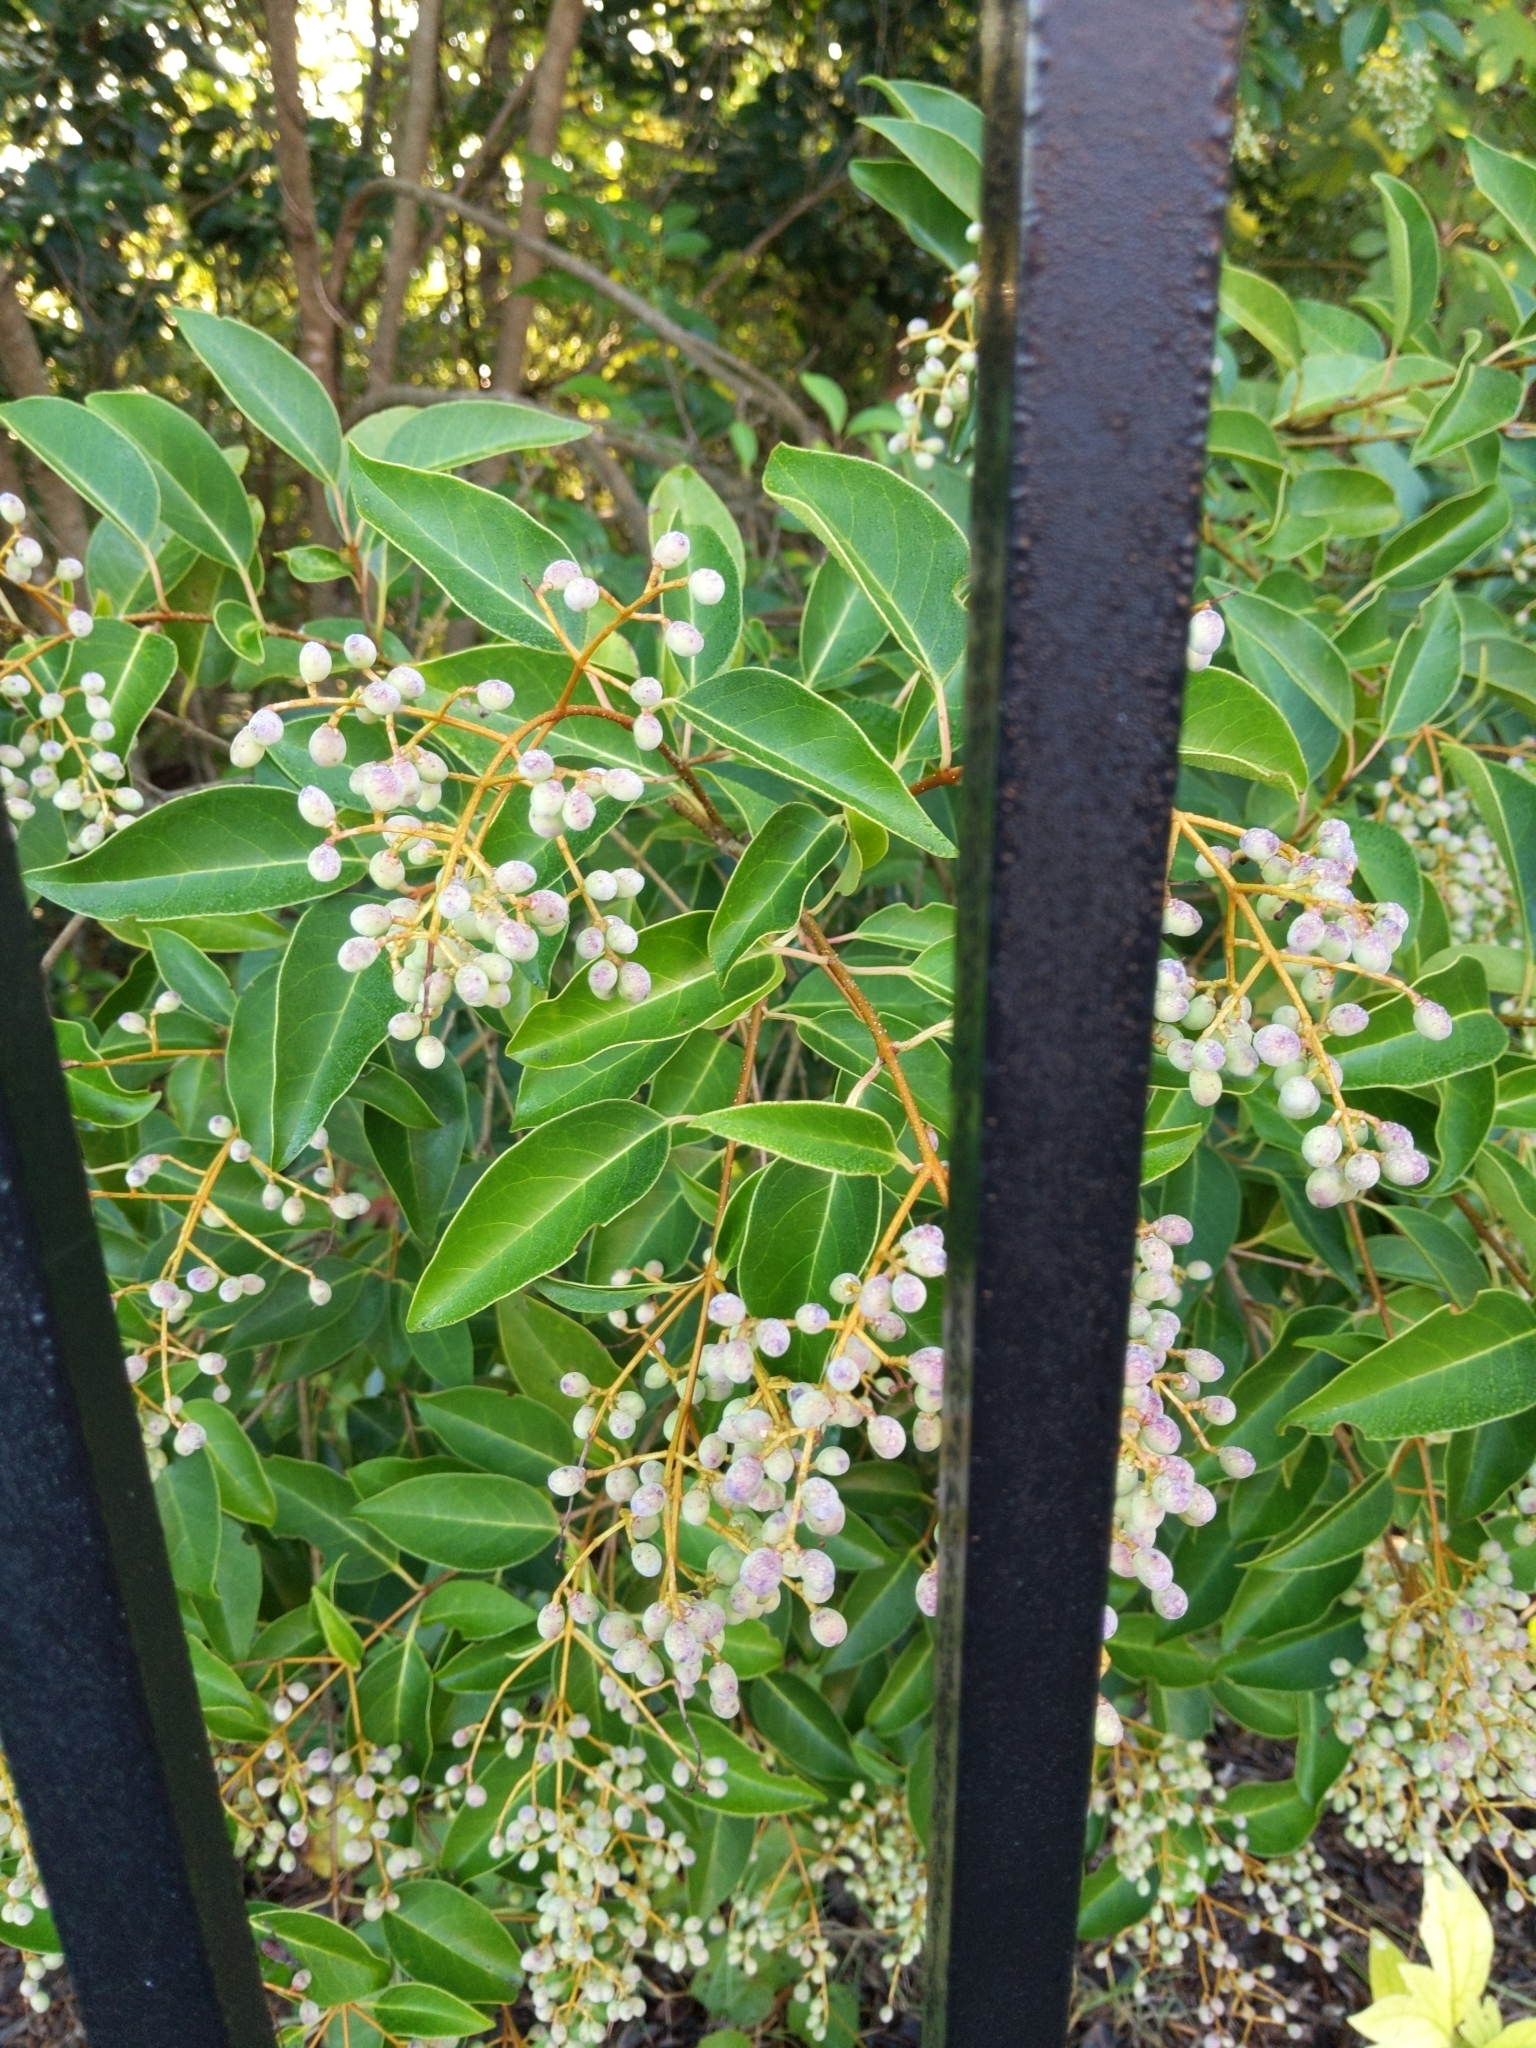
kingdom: Plantae
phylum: Tracheophyta
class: Magnoliopsida
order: Lamiales
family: Oleaceae
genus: Ligustrum
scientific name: Ligustrum lucidum
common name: Glossy privet
